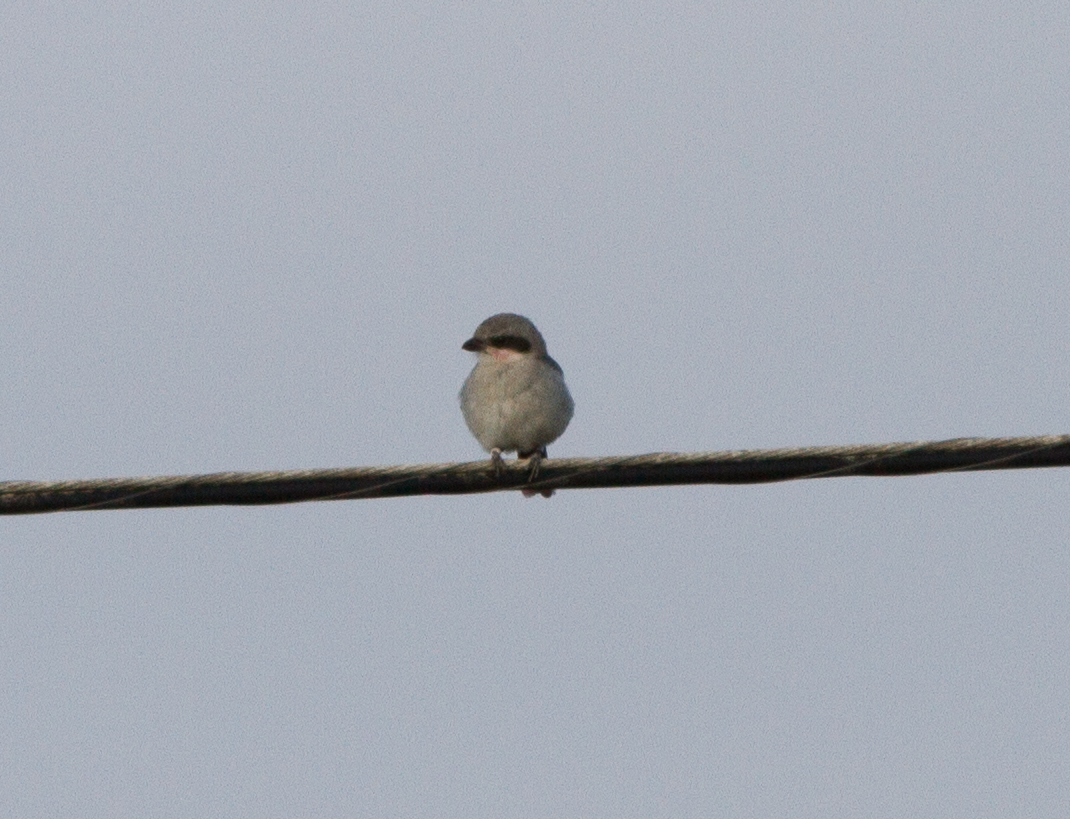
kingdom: Animalia
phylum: Chordata
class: Aves
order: Passeriformes
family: Laniidae
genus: Lanius
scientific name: Lanius ludovicianus
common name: Loggerhead shrike
